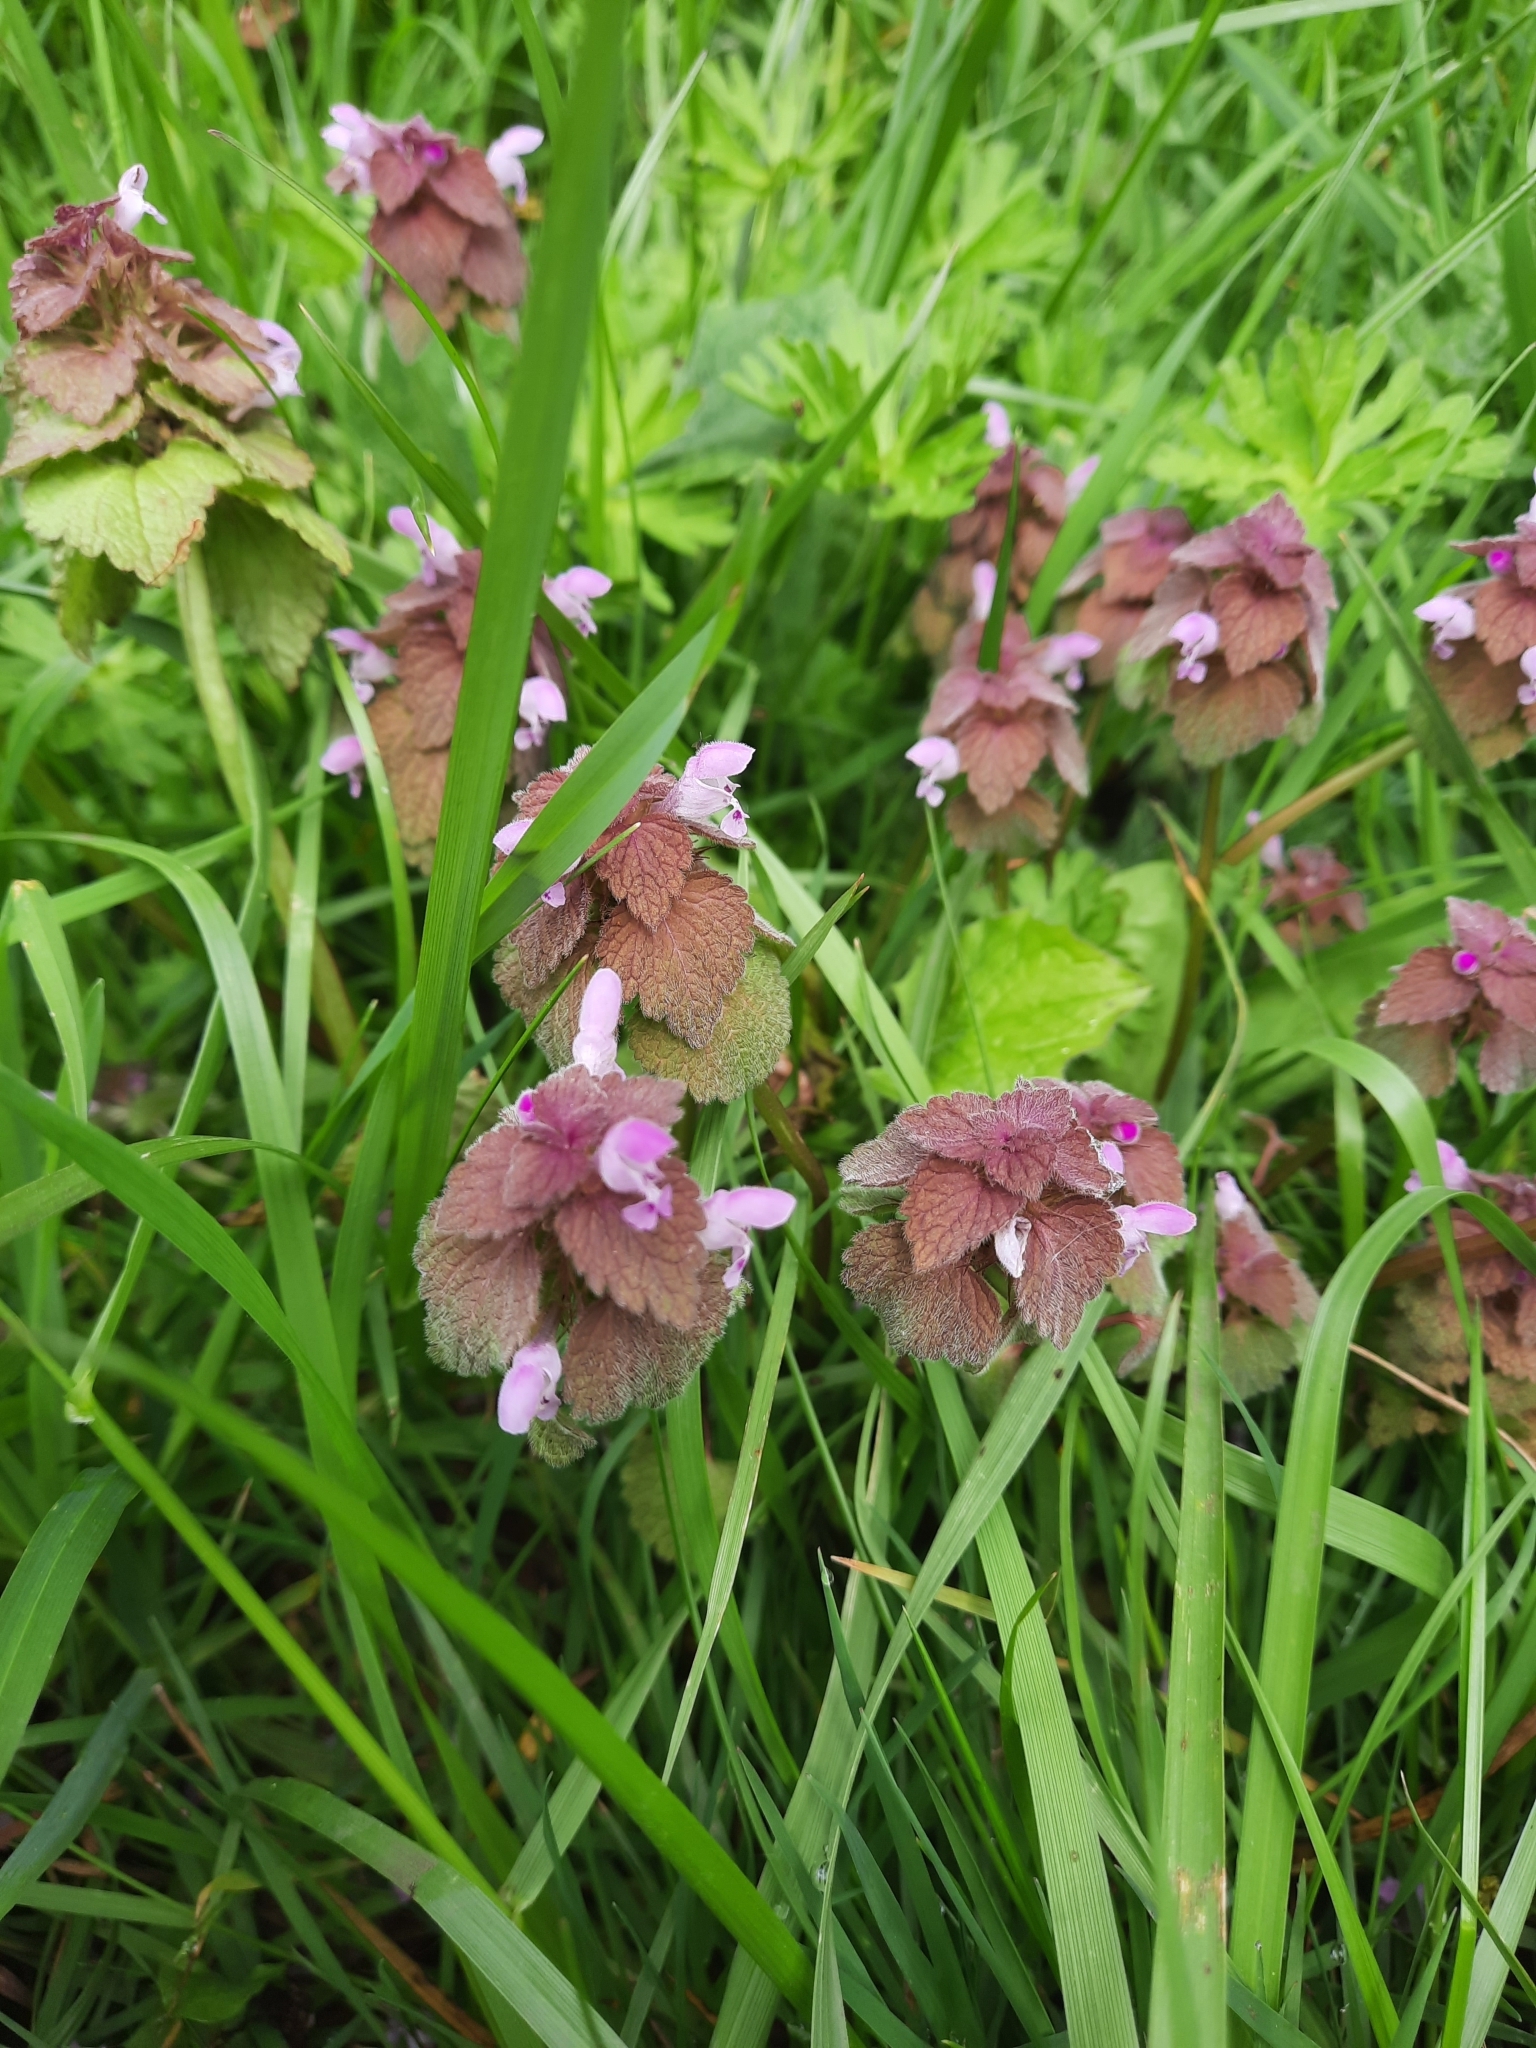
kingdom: Plantae
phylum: Tracheophyta
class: Magnoliopsida
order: Lamiales
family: Lamiaceae
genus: Lamium
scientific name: Lamium purpureum
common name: Red dead-nettle
